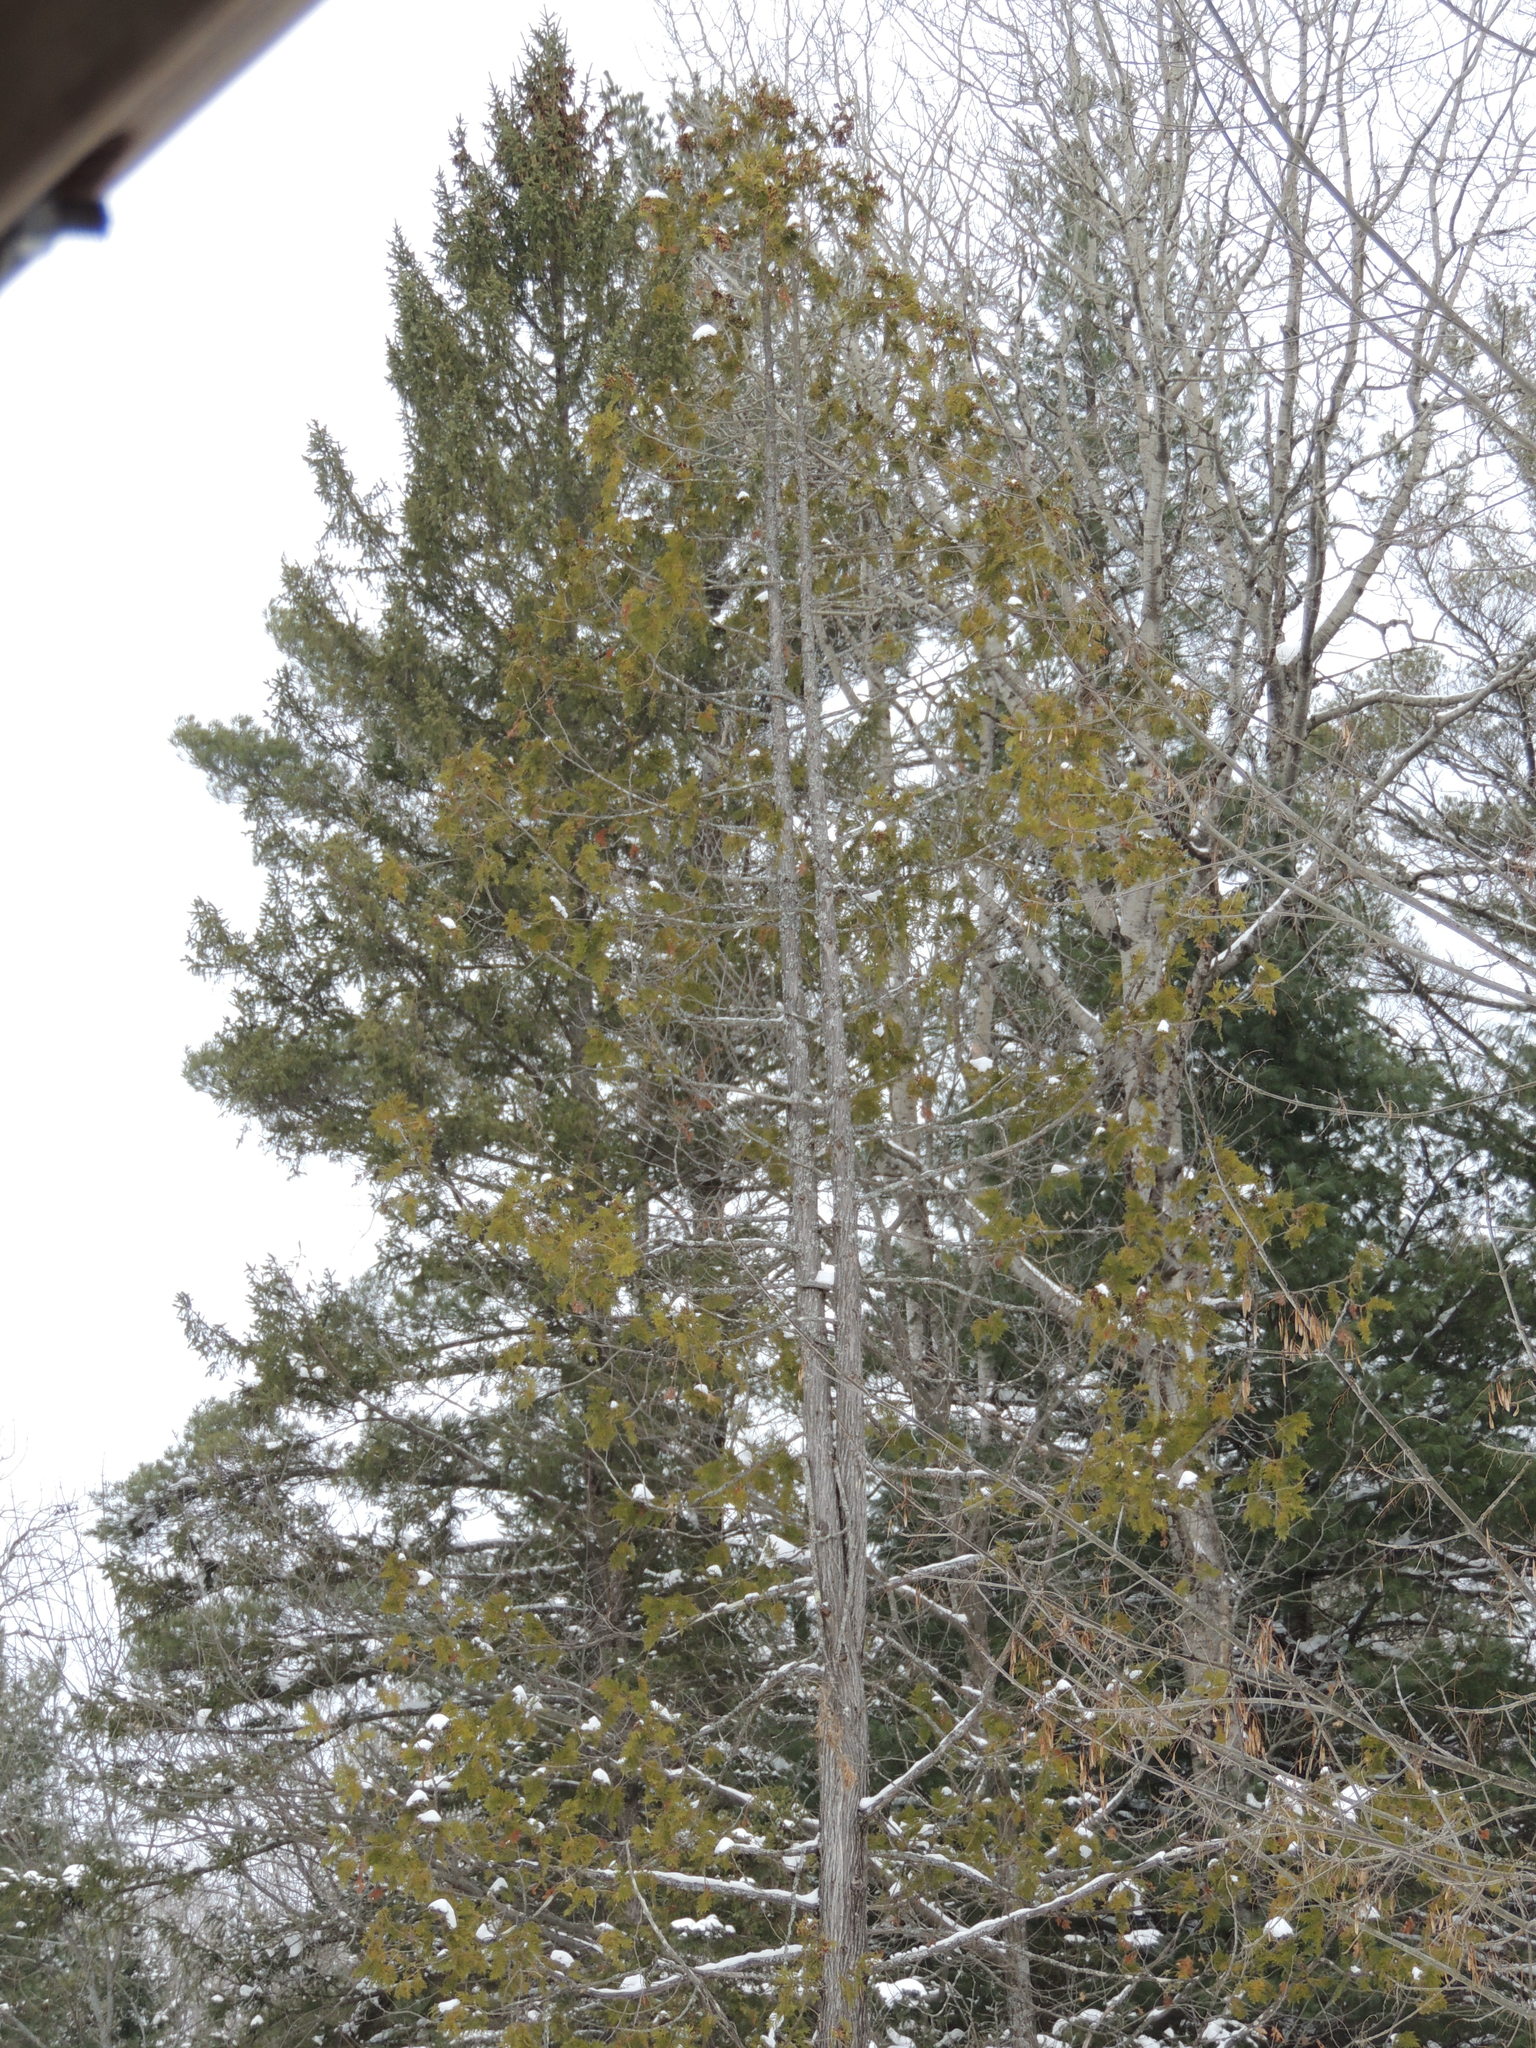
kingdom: Plantae
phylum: Tracheophyta
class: Pinopsida
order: Pinales
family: Cupressaceae
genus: Thuja
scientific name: Thuja occidentalis
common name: Northern white-cedar
